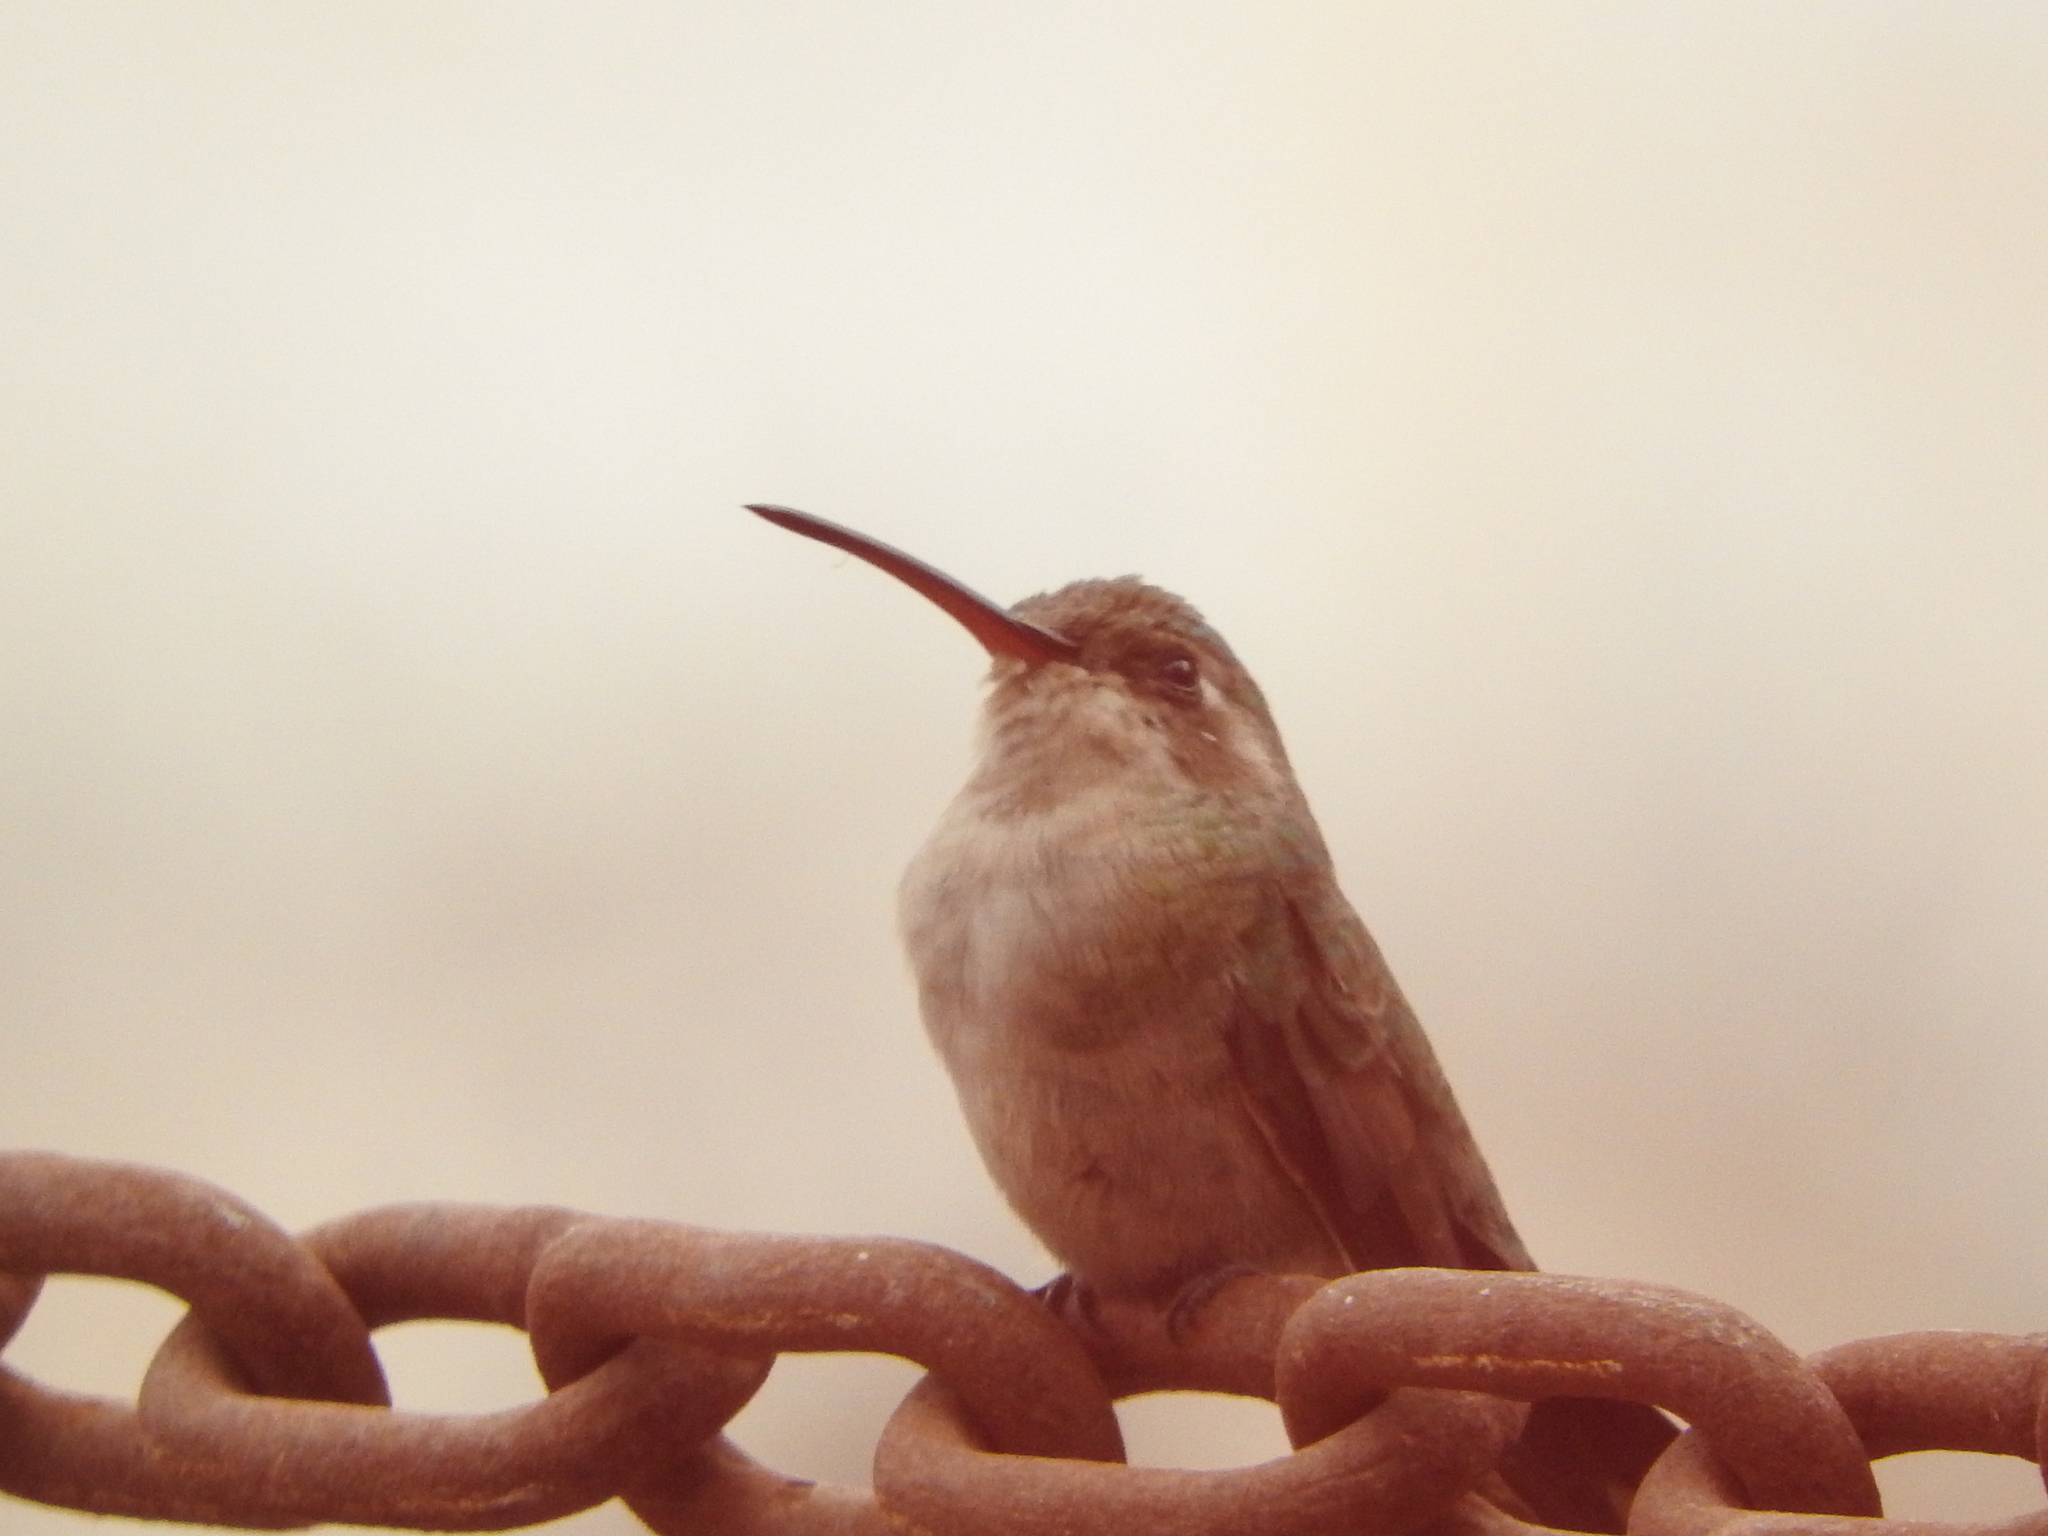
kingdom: Animalia
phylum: Chordata
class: Aves
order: Apodiformes
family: Trochilidae
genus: Cynanthus
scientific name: Cynanthus latirostris
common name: Broad-billed hummingbird
